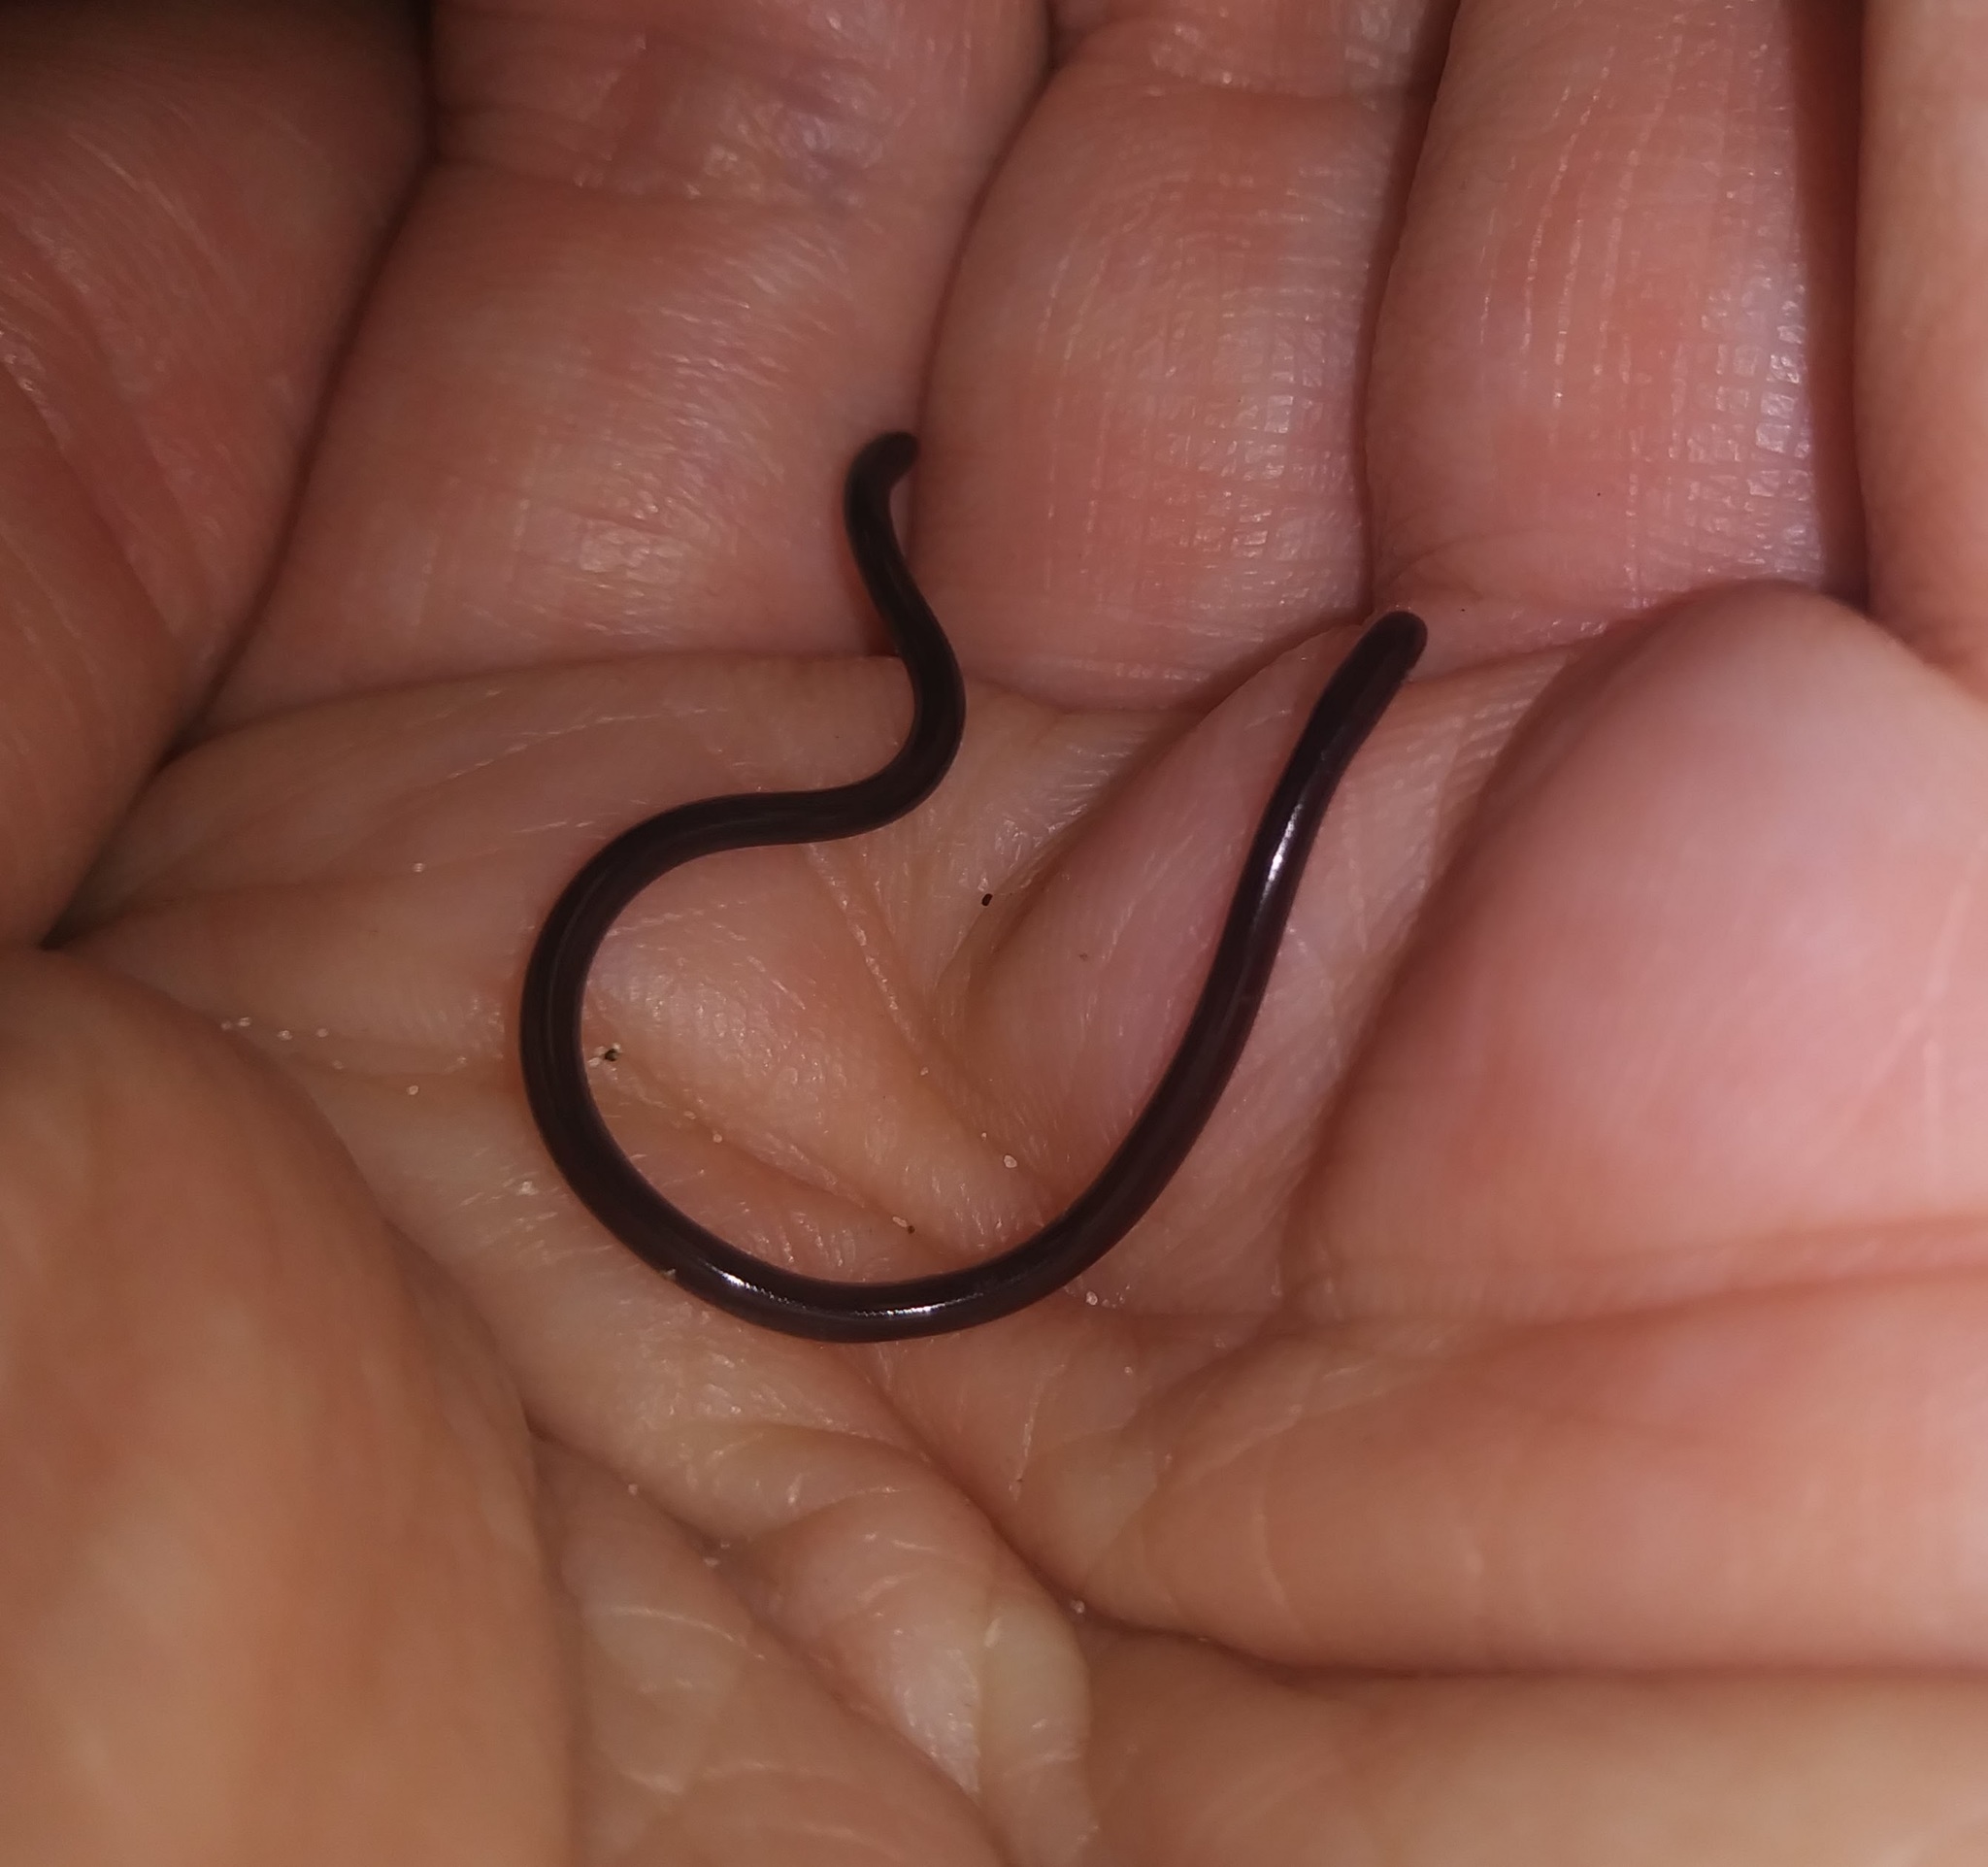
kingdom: Animalia
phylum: Chordata
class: Squamata
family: Typhlopidae
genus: Indotyphlops
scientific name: Indotyphlops braminus
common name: Brahminy blindsnake
